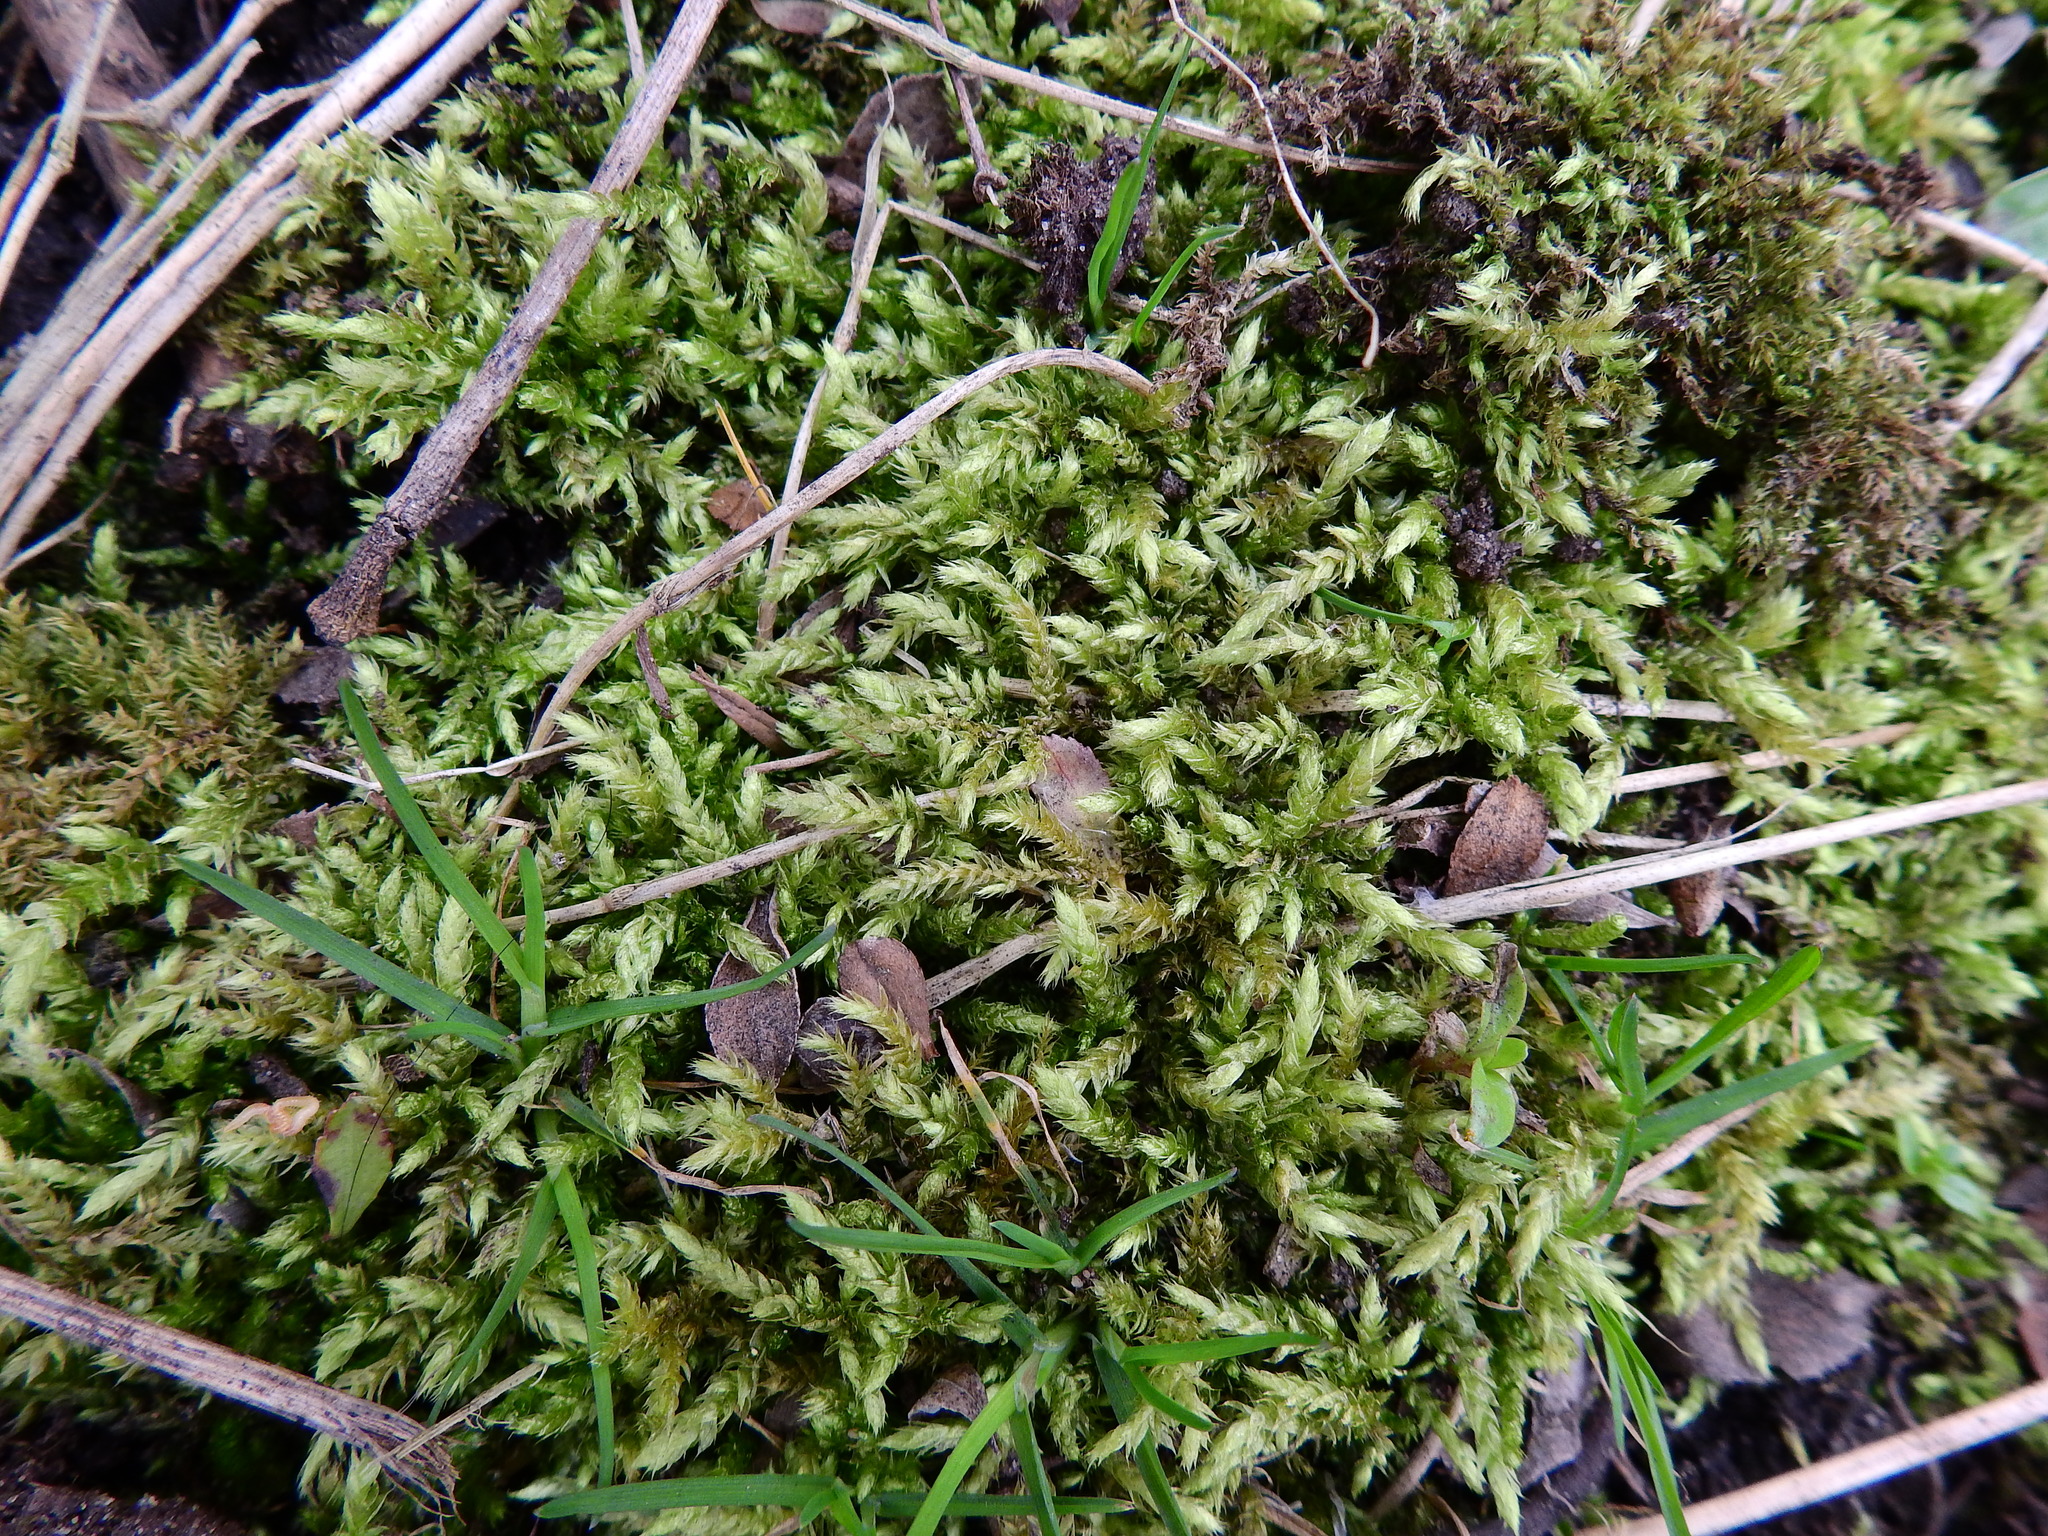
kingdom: Plantae
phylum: Bryophyta
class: Bryopsida
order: Hypnales
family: Brachytheciaceae
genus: Brachythecium
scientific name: Brachythecium rutabulum
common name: Rough-stalked feather-moss
